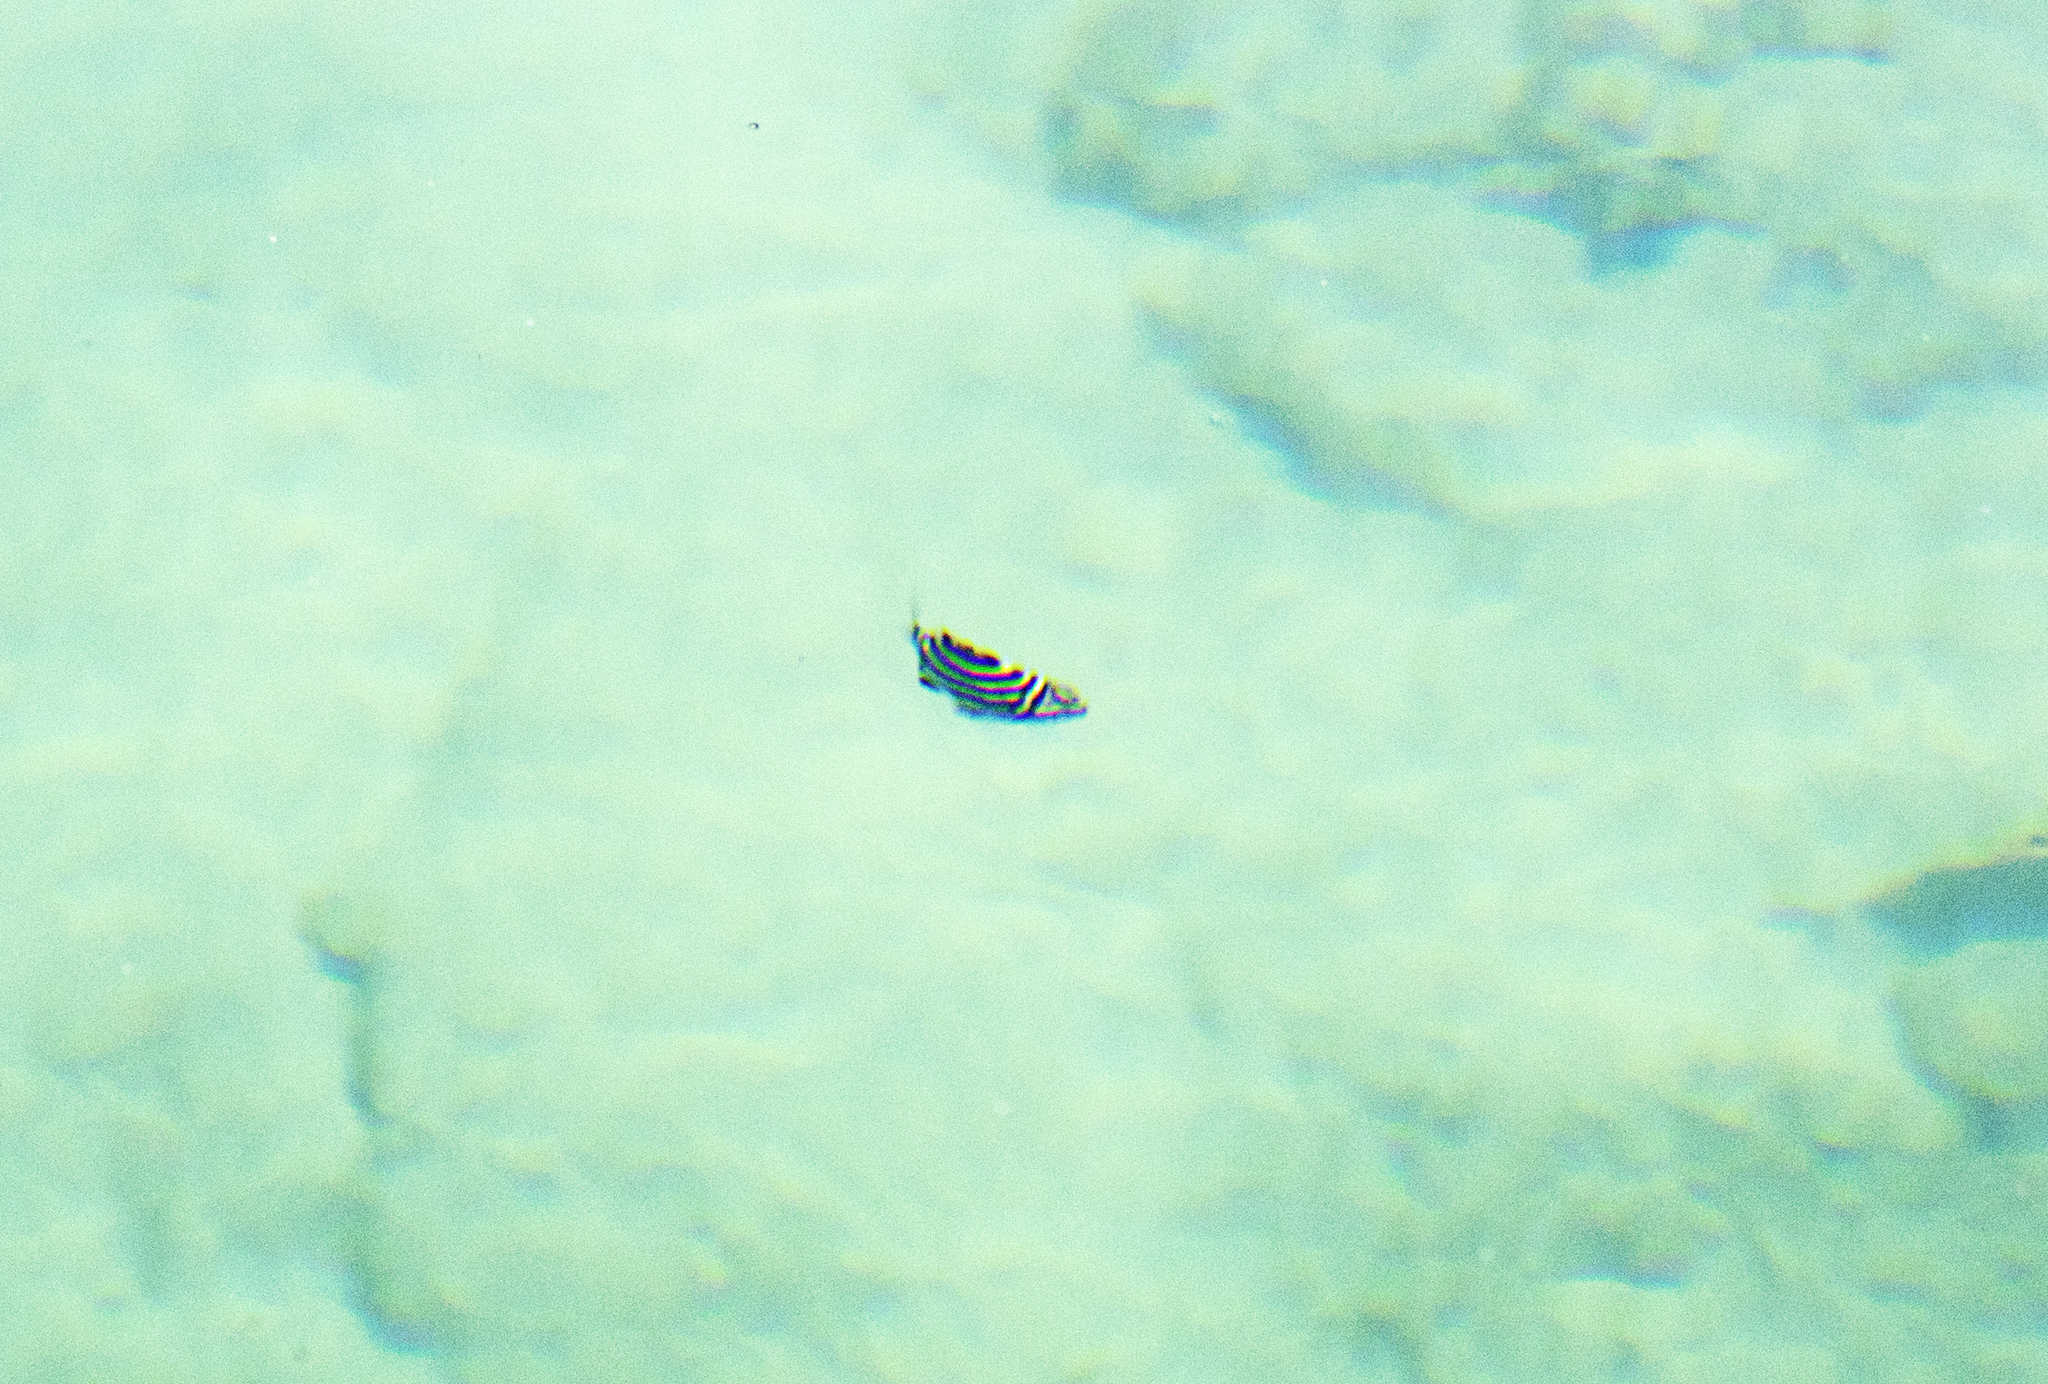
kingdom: Animalia
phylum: Chordata
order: Perciformes
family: Kyphosidae
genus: Microcanthus
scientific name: Microcanthus joyceae
